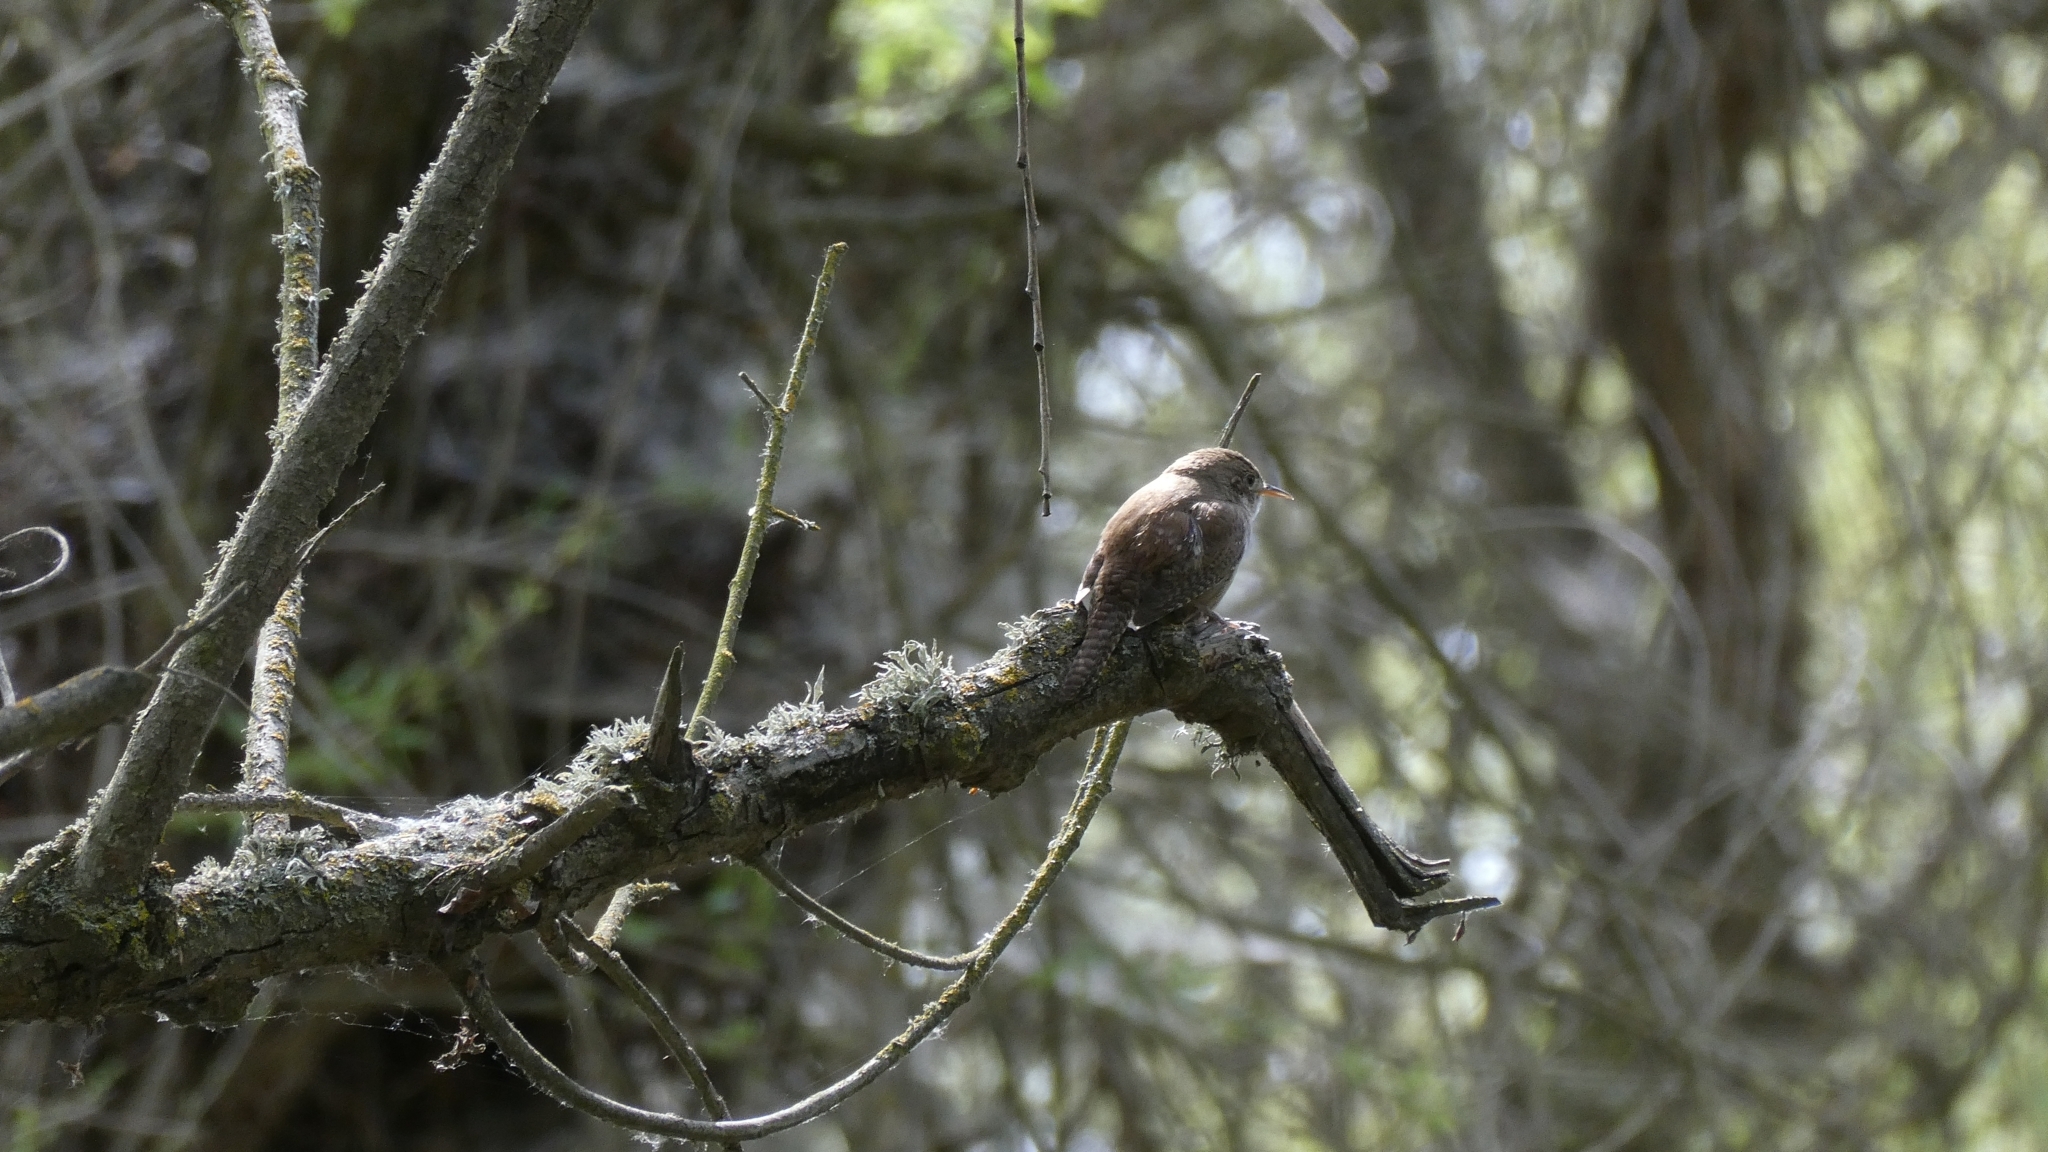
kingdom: Animalia
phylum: Chordata
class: Aves
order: Passeriformes
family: Troglodytidae
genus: Troglodytes
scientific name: Troglodytes aedon
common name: House wren
